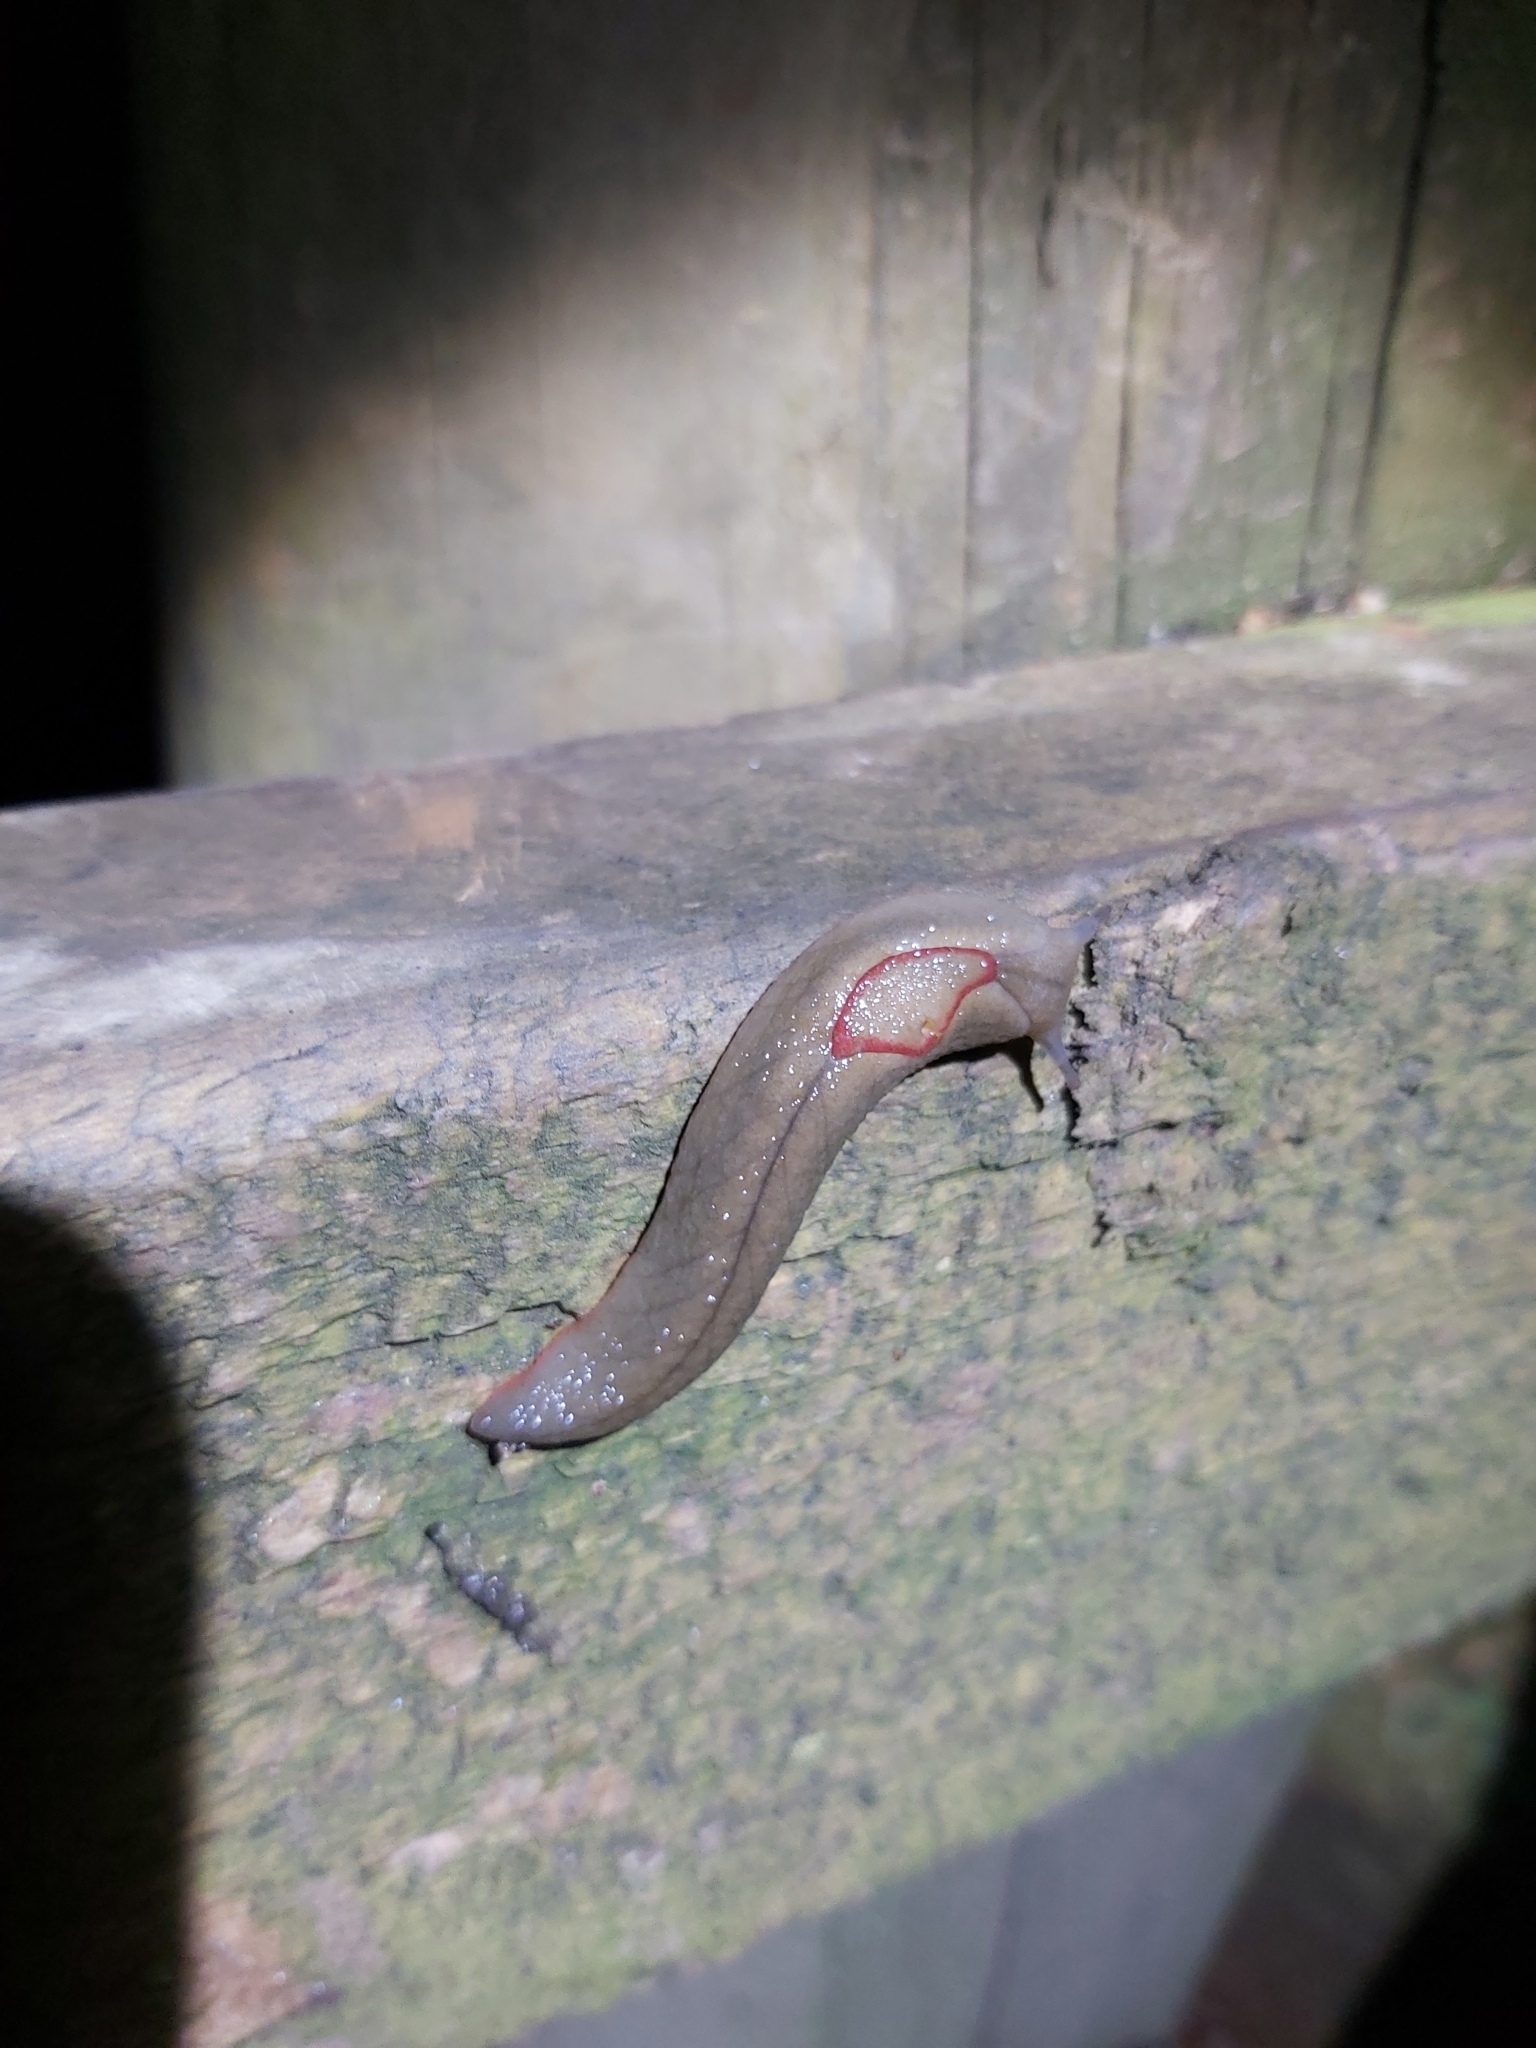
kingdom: Animalia
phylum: Mollusca
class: Gastropoda
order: Stylommatophora
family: Athoracophoridae
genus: Triboniophorus
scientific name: Triboniophorus graeffei
